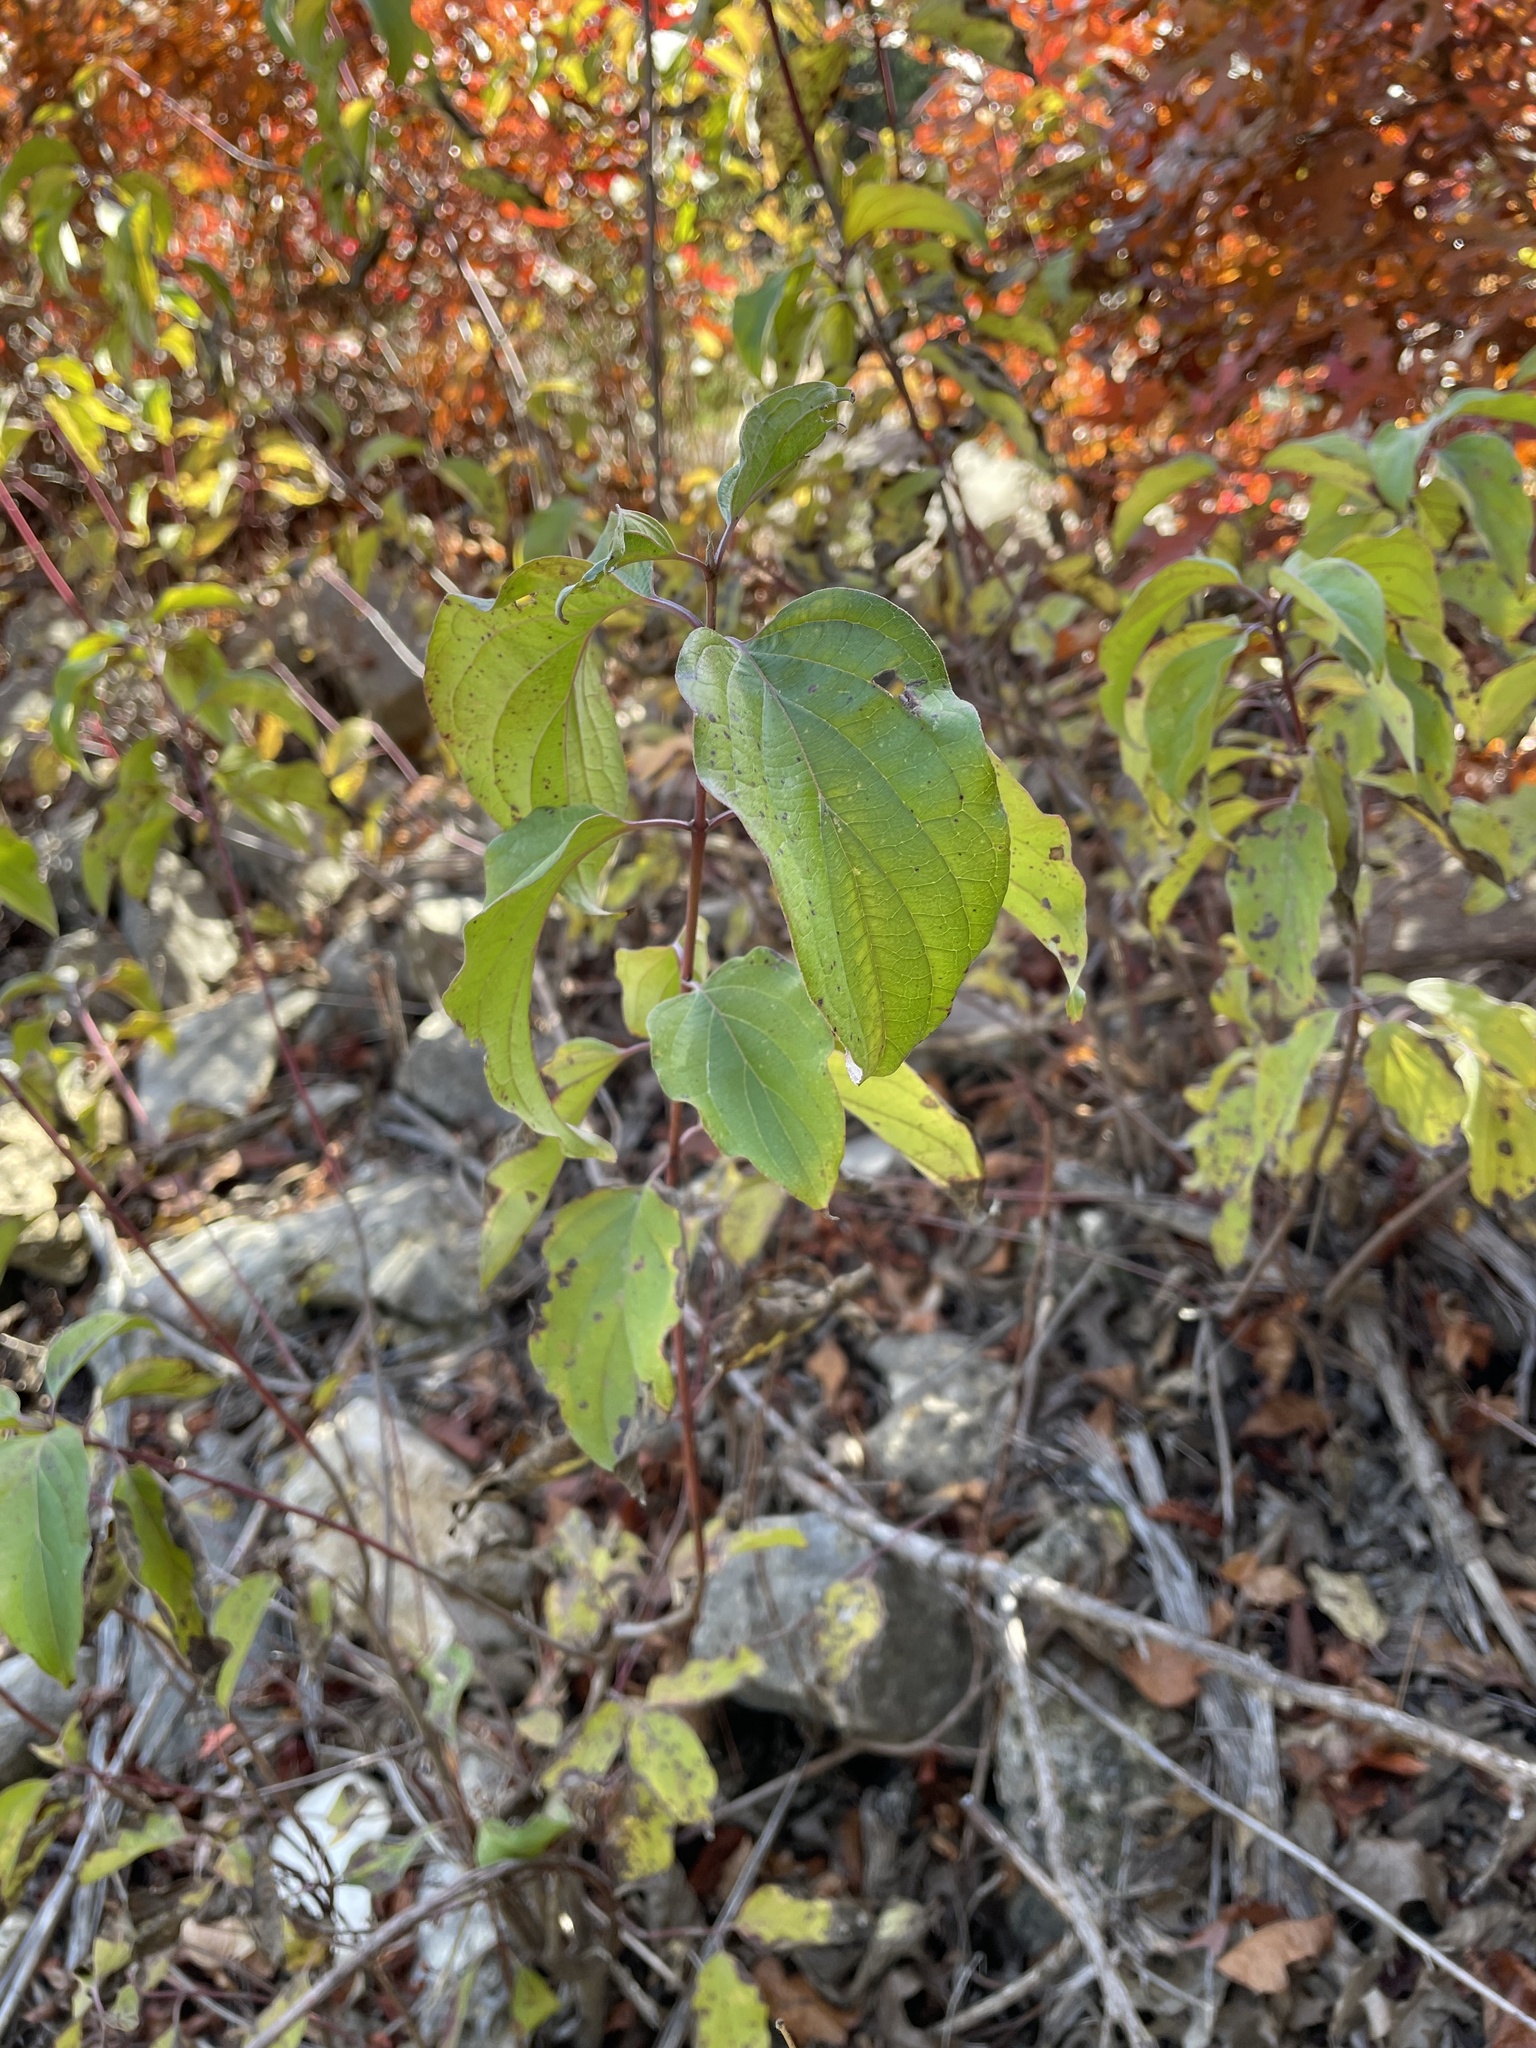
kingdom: Plantae
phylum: Tracheophyta
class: Magnoliopsida
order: Cornales
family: Cornaceae
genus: Cornus
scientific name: Cornus drummondii
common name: Rough-leaf dogwood
